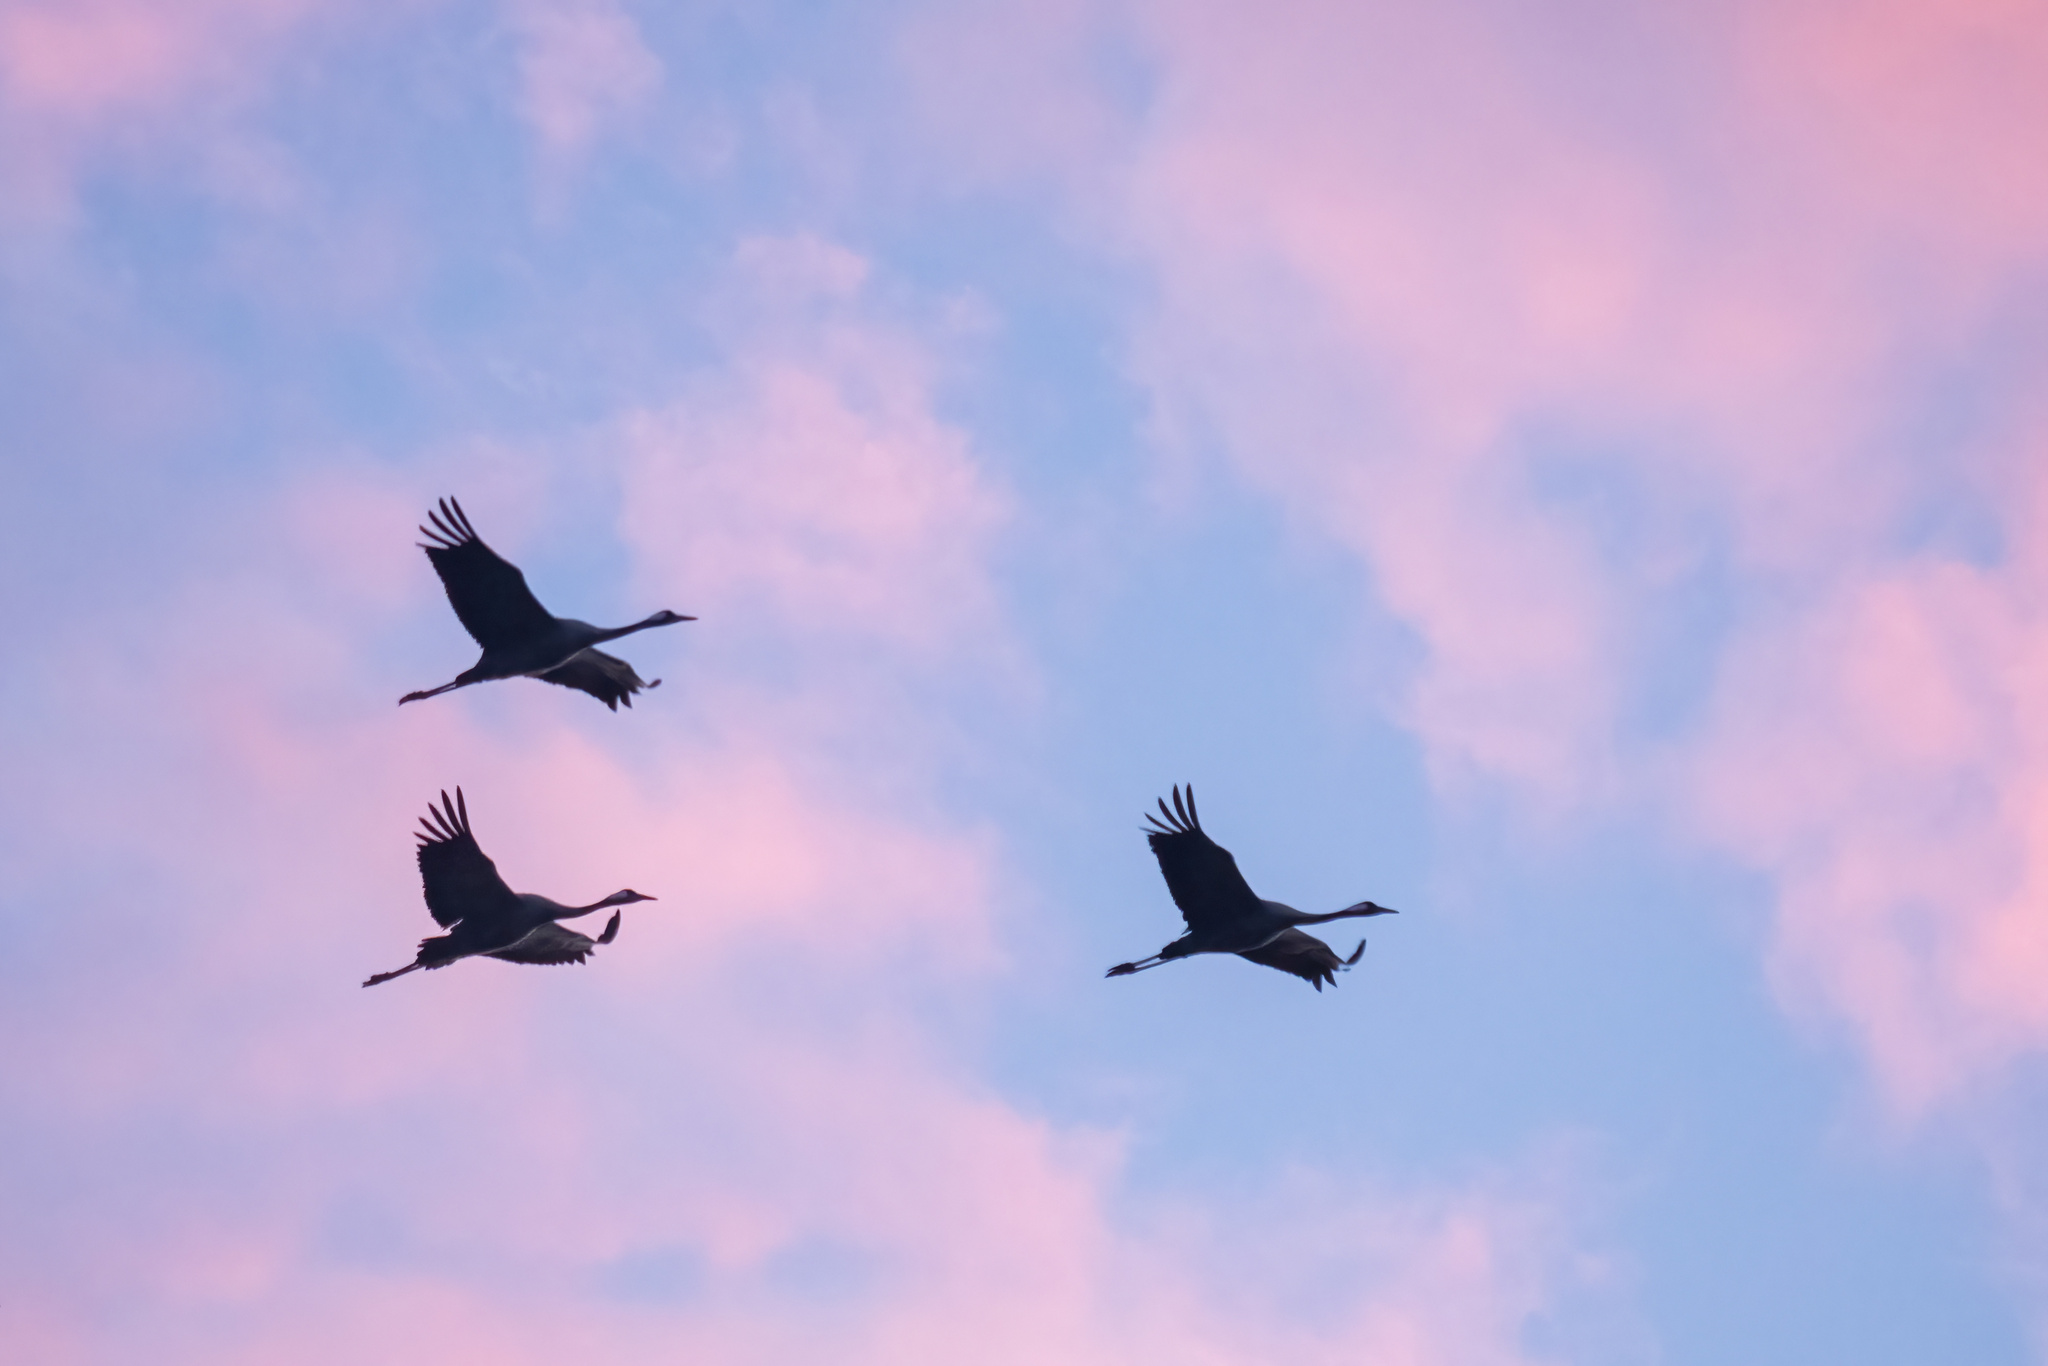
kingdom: Animalia
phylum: Chordata
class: Aves
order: Gruiformes
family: Gruidae
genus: Grus
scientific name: Grus grus
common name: Common crane
